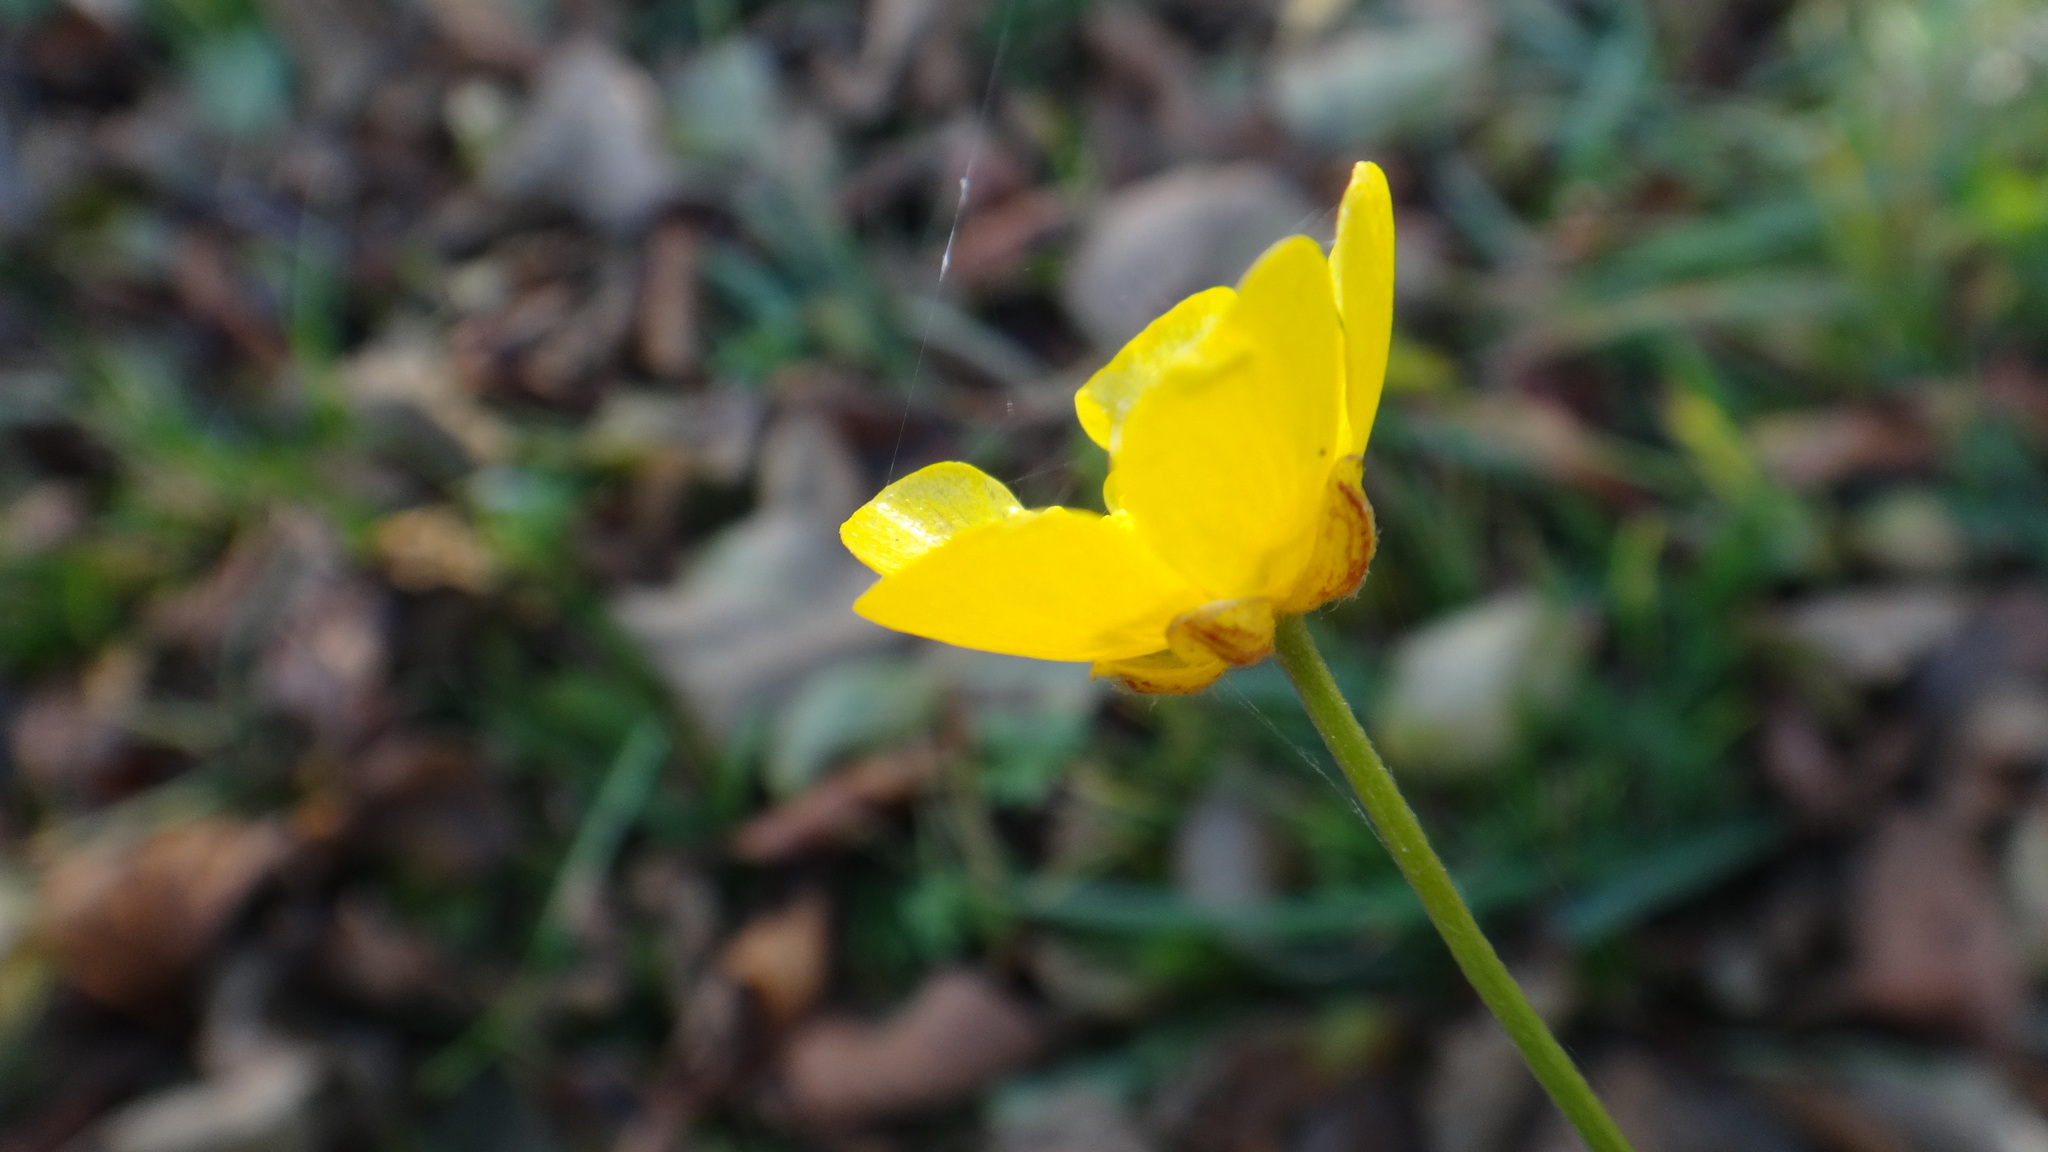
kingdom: Plantae
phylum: Tracheophyta
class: Magnoliopsida
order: Ranunculales
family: Ranunculaceae
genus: Ranunculus
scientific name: Ranunculus acris
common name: Meadow buttercup
